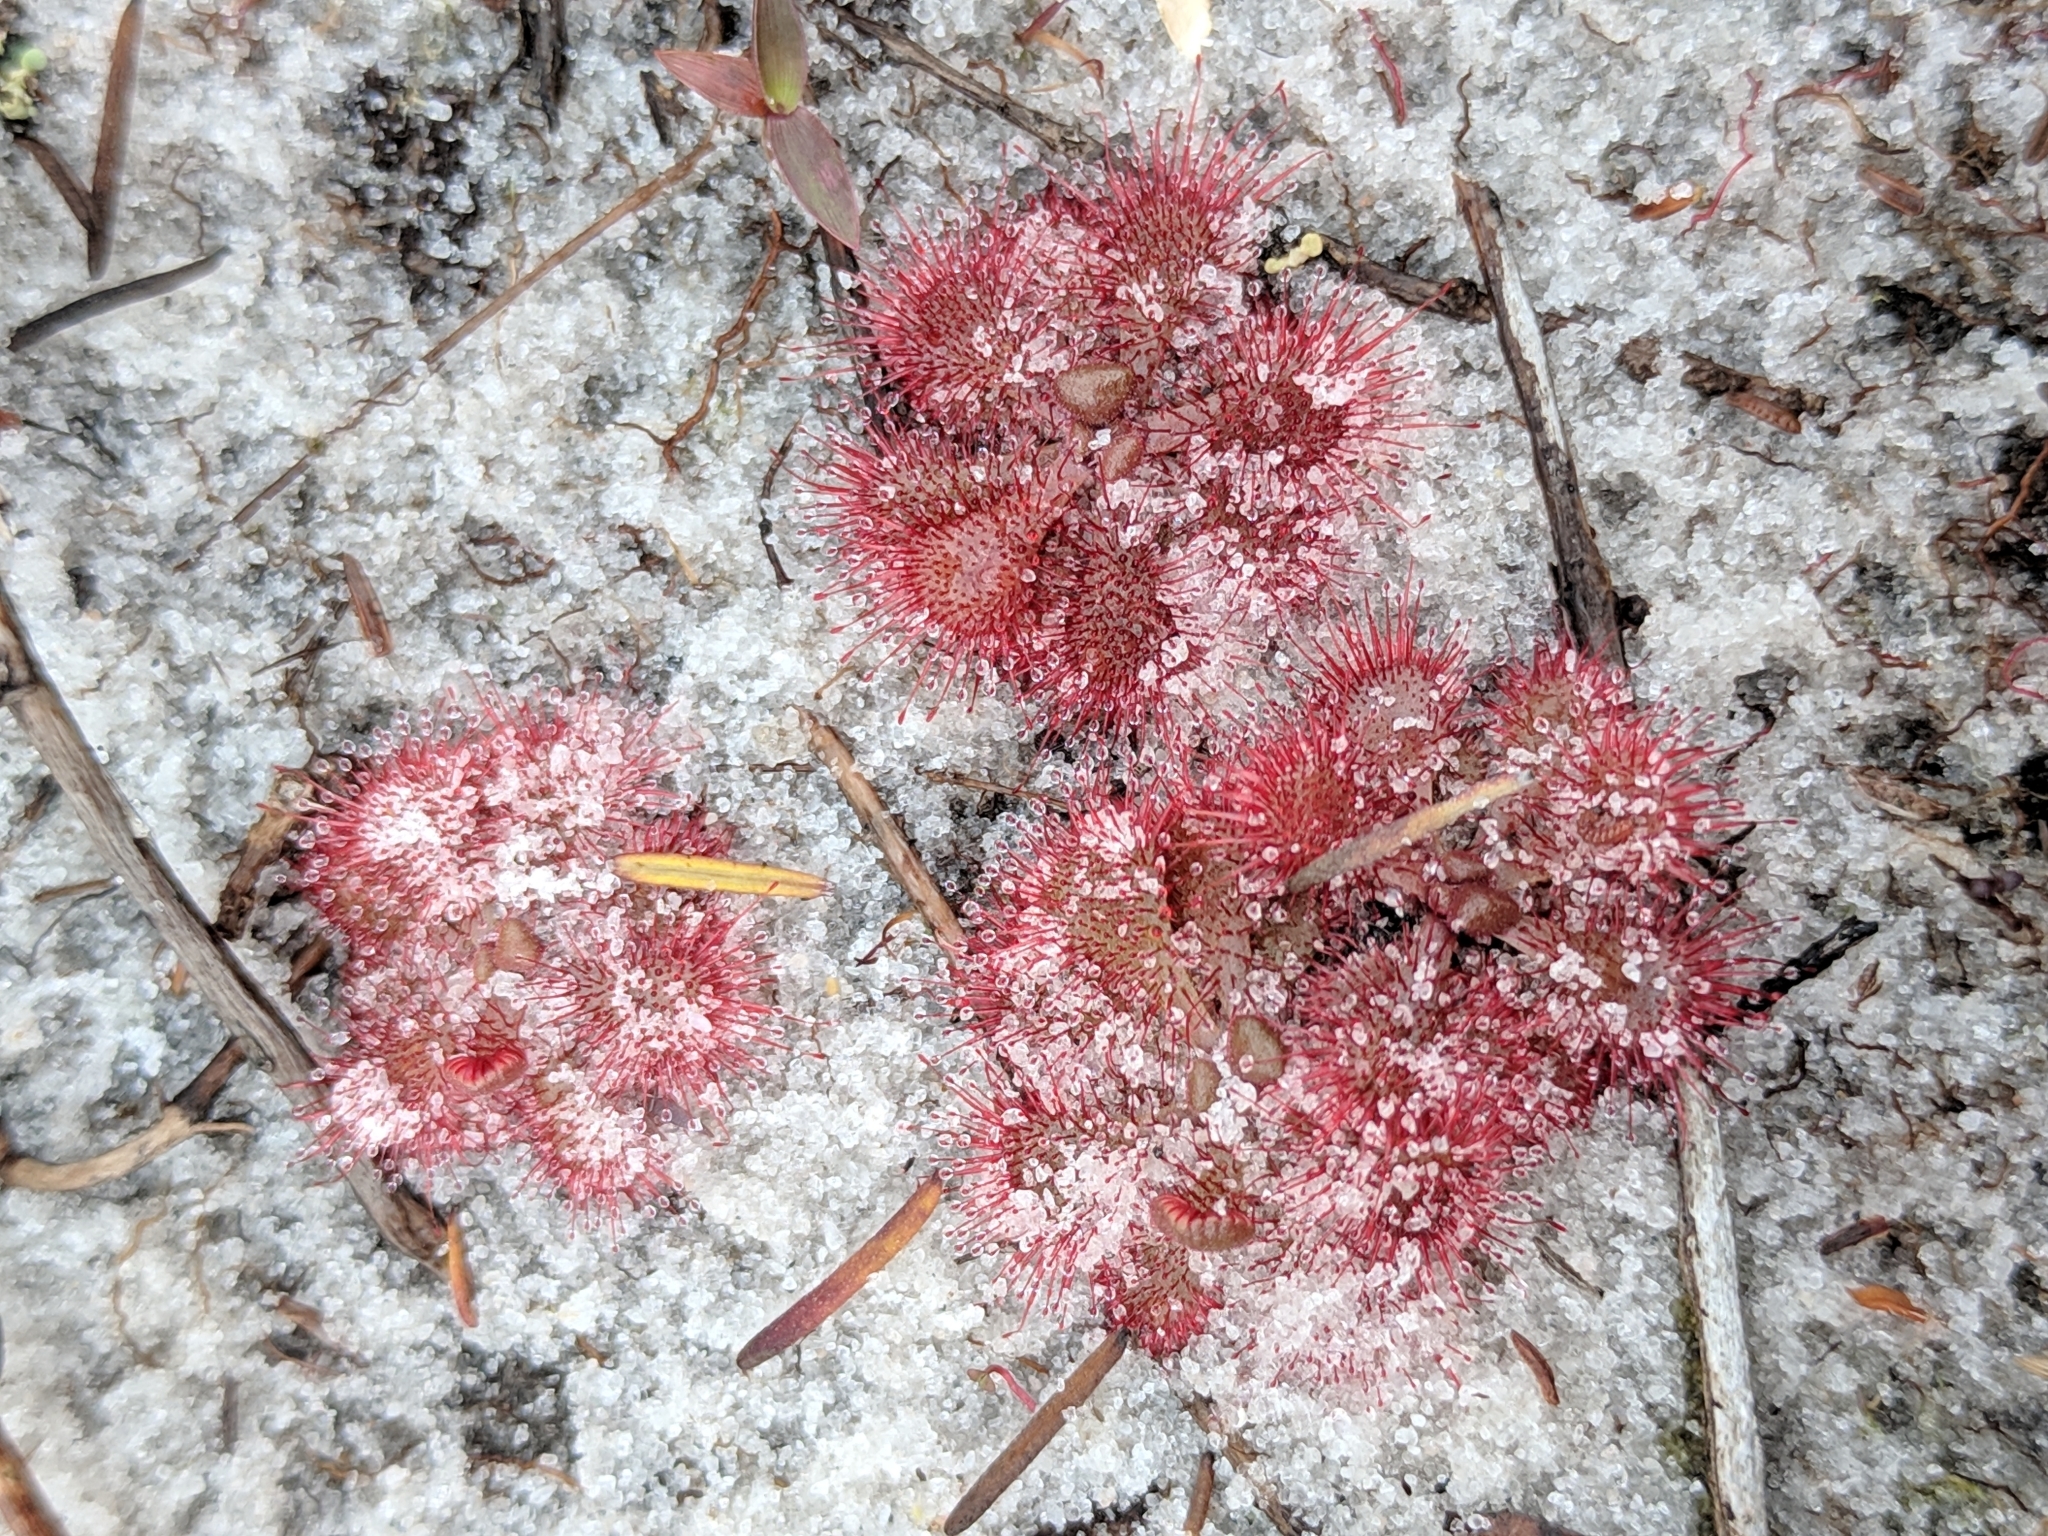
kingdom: Plantae
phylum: Tracheophyta
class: Magnoliopsida
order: Caryophyllales
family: Droseraceae
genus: Drosera
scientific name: Drosera brevifolia
